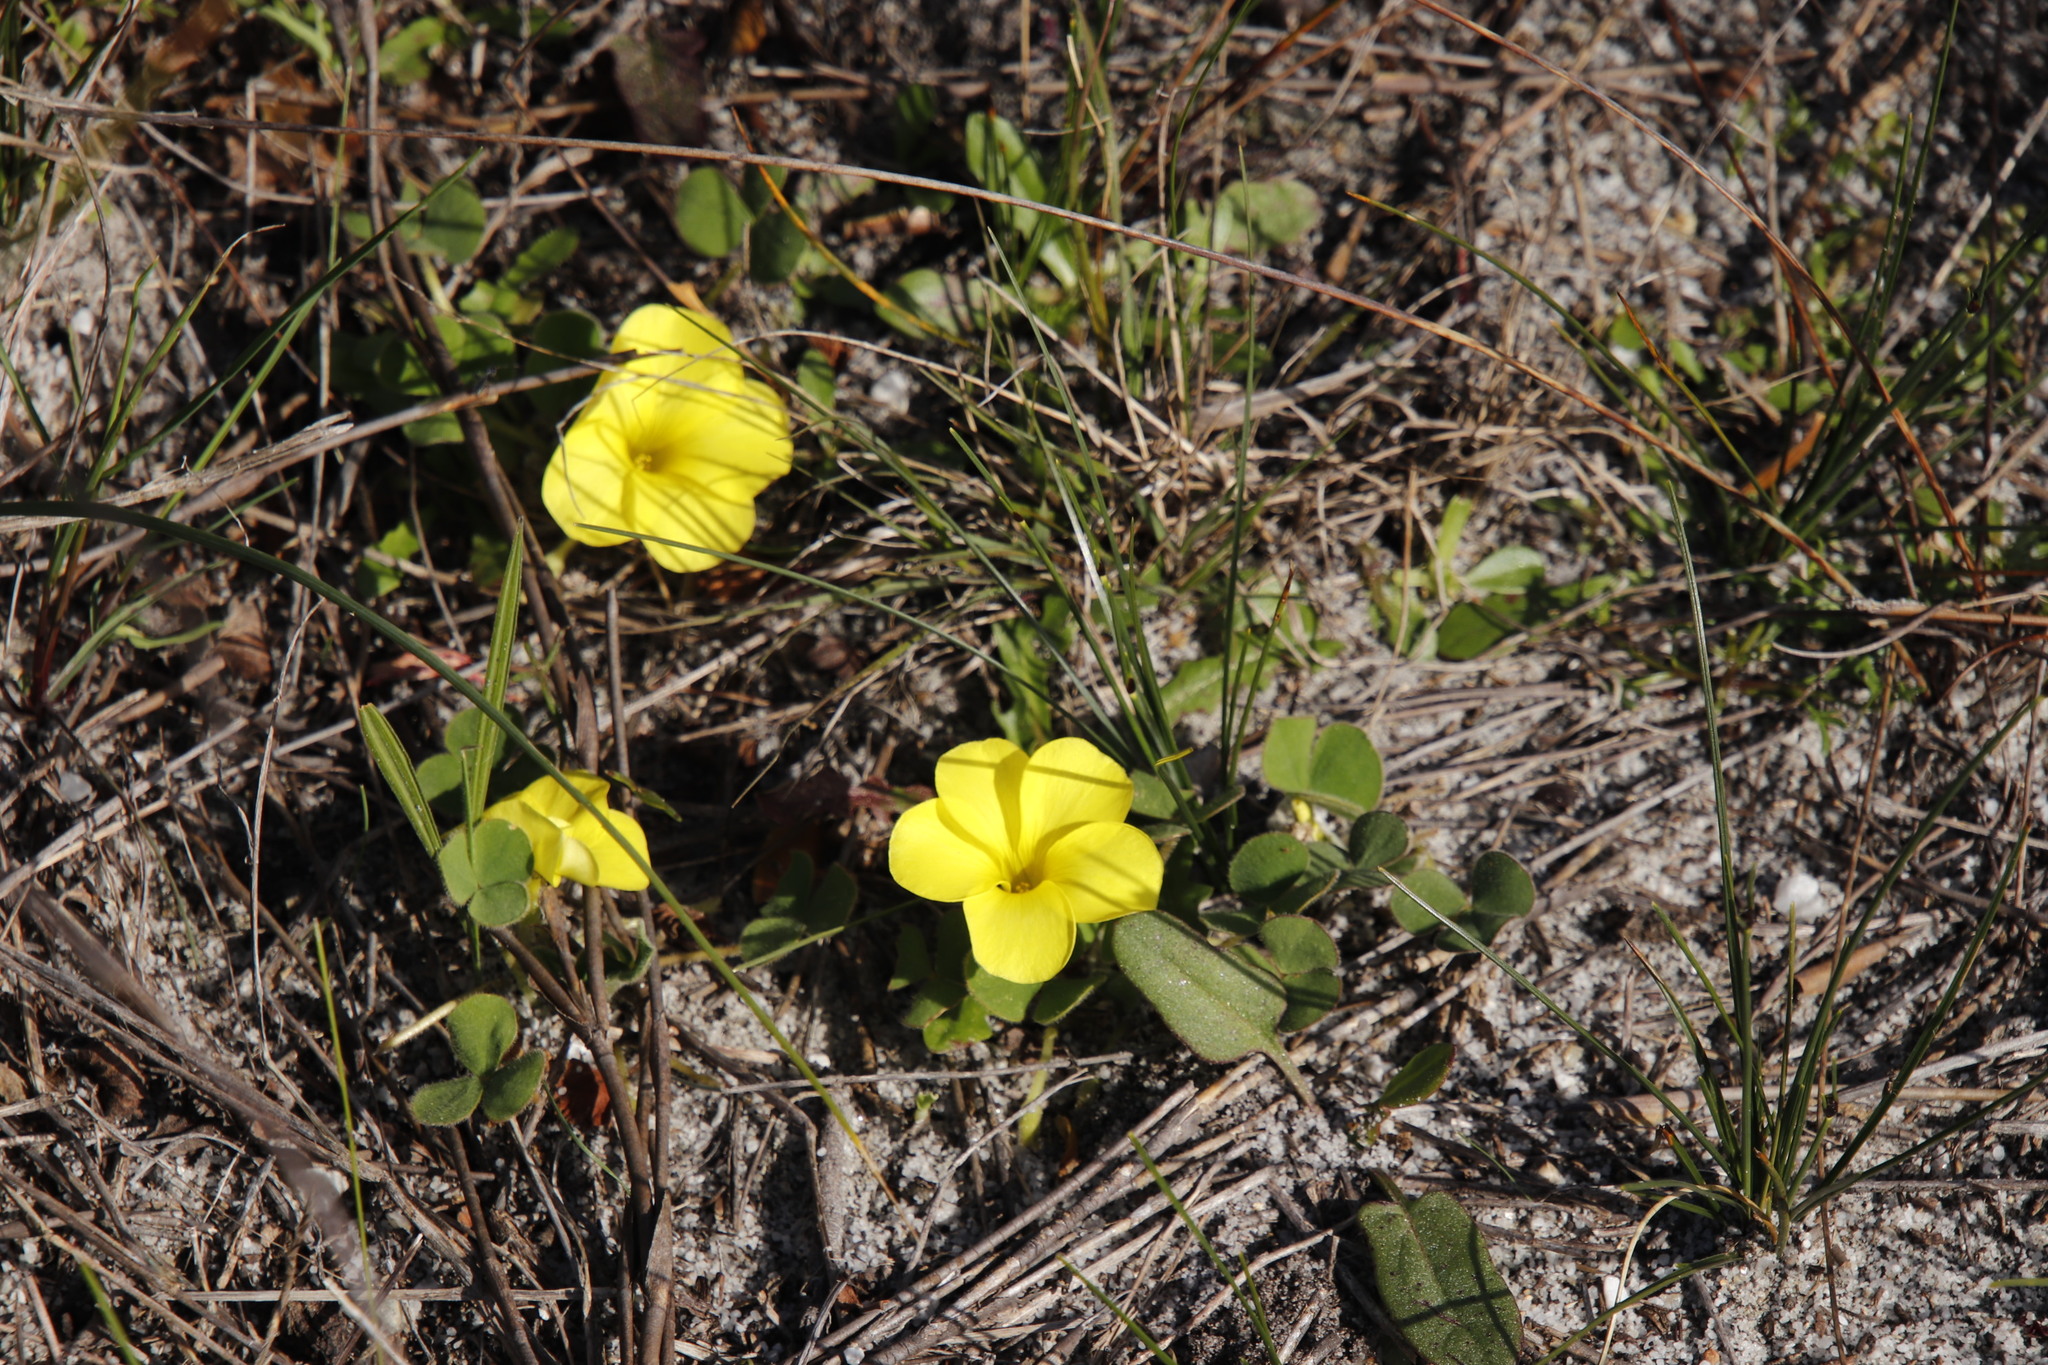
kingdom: Plantae
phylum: Tracheophyta
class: Magnoliopsida
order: Oxalidales
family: Oxalidaceae
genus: Oxalis
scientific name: Oxalis luteola
